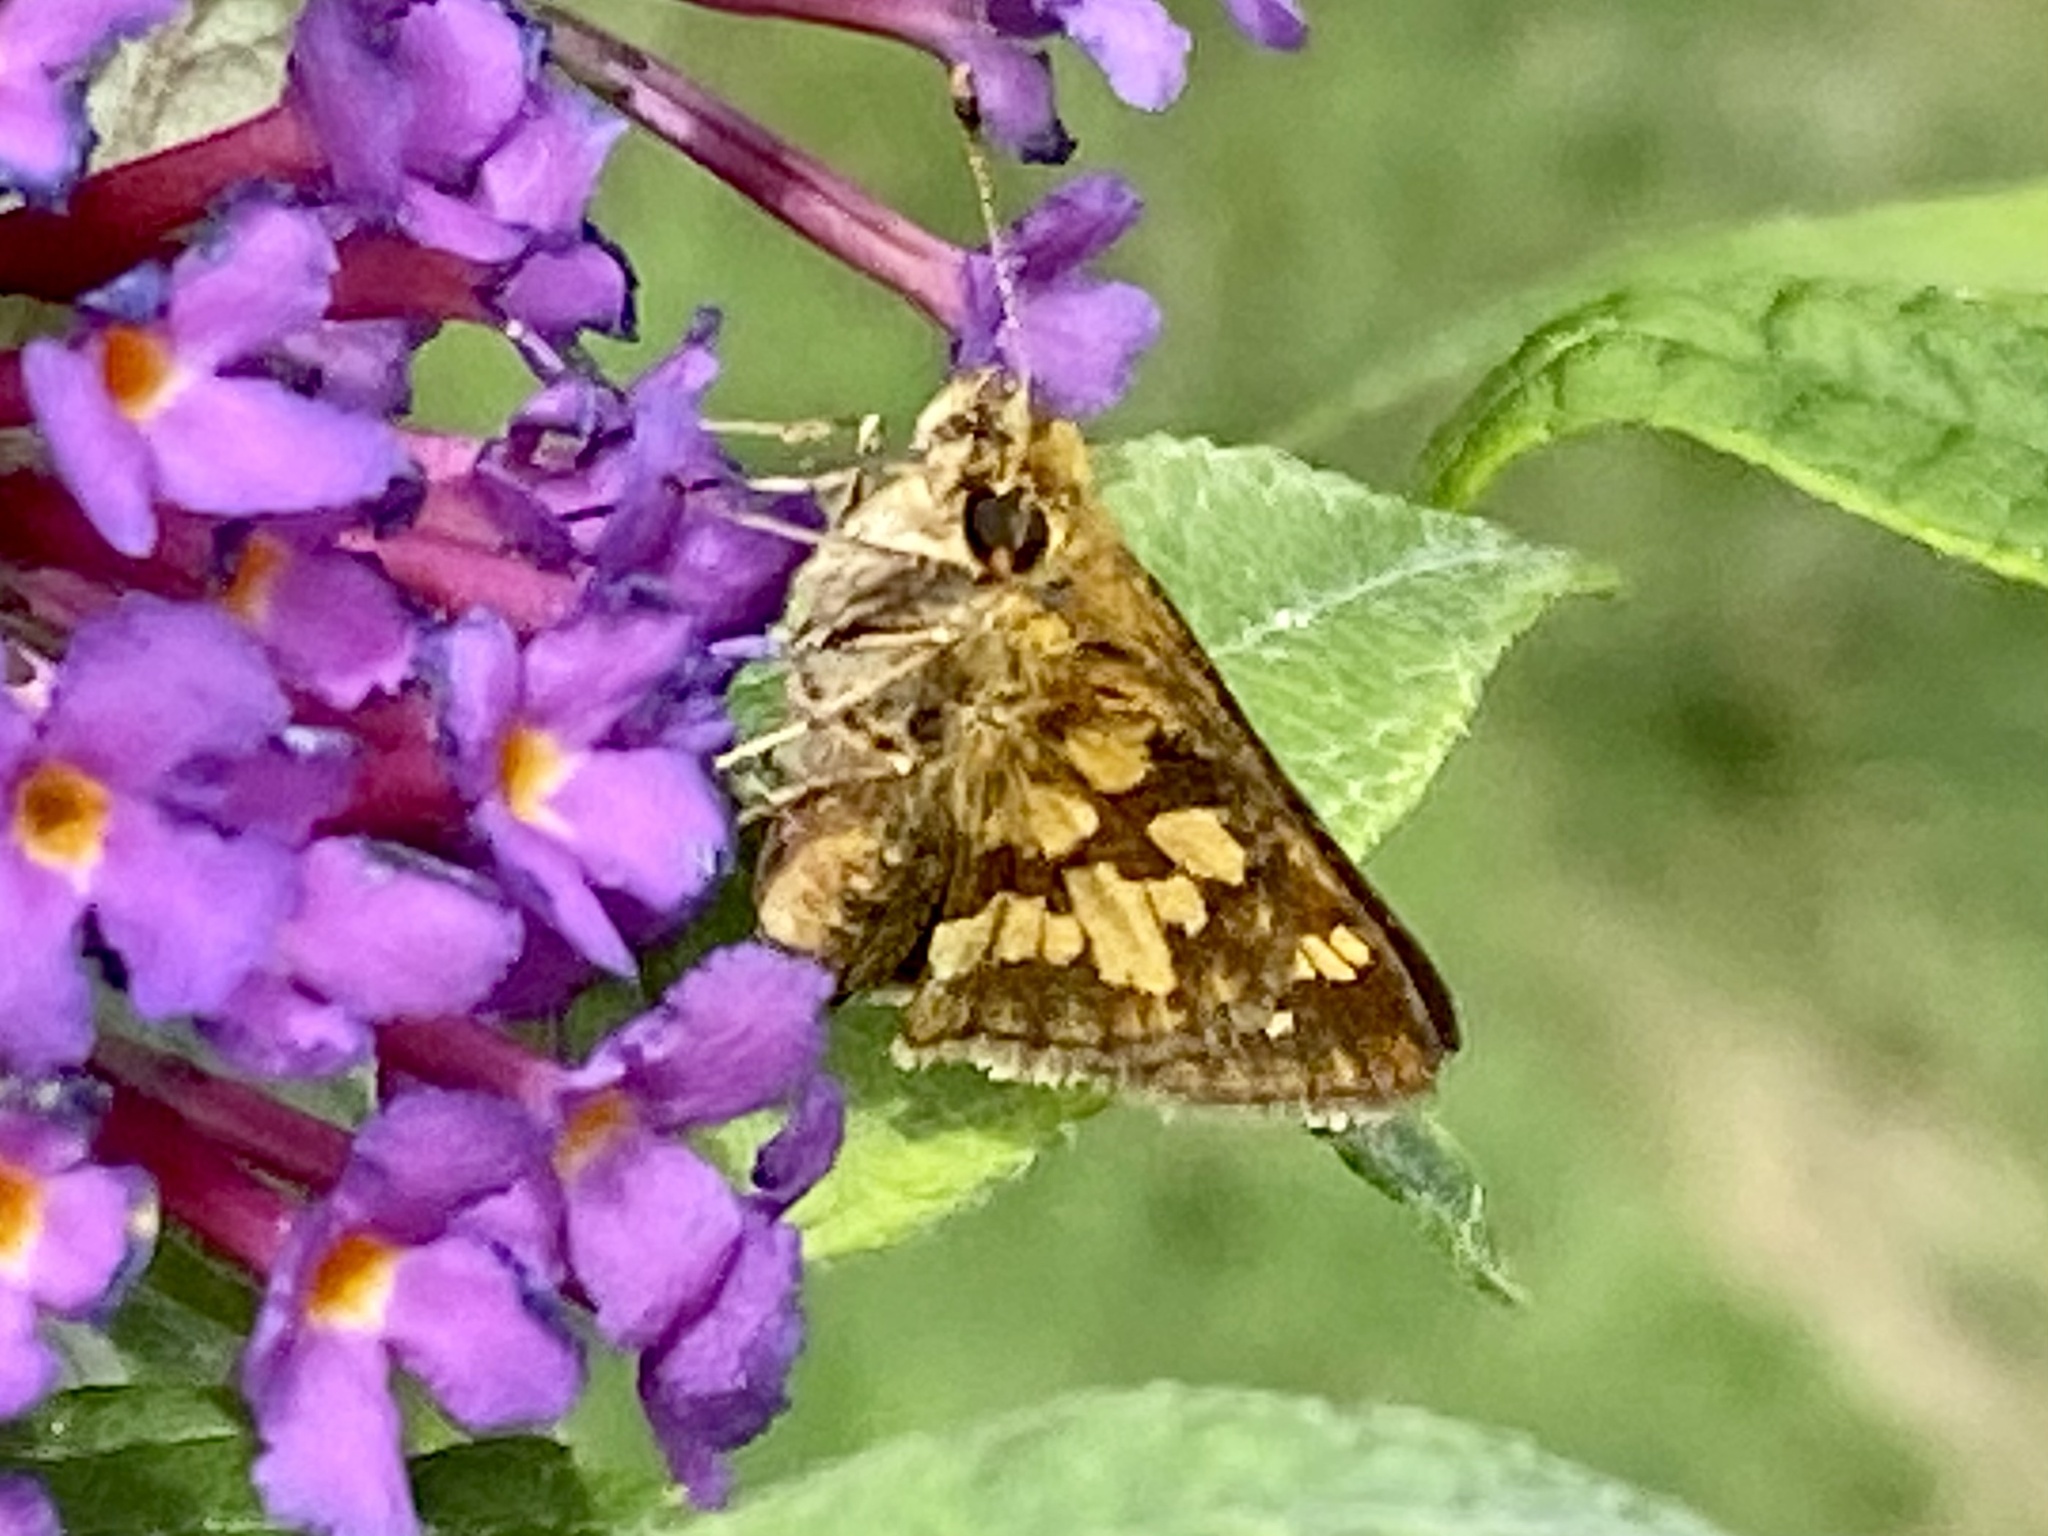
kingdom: Animalia
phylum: Arthropoda
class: Insecta
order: Lepidoptera
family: Hesperiidae
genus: Polites
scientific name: Polites coras
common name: Peck's skipper
